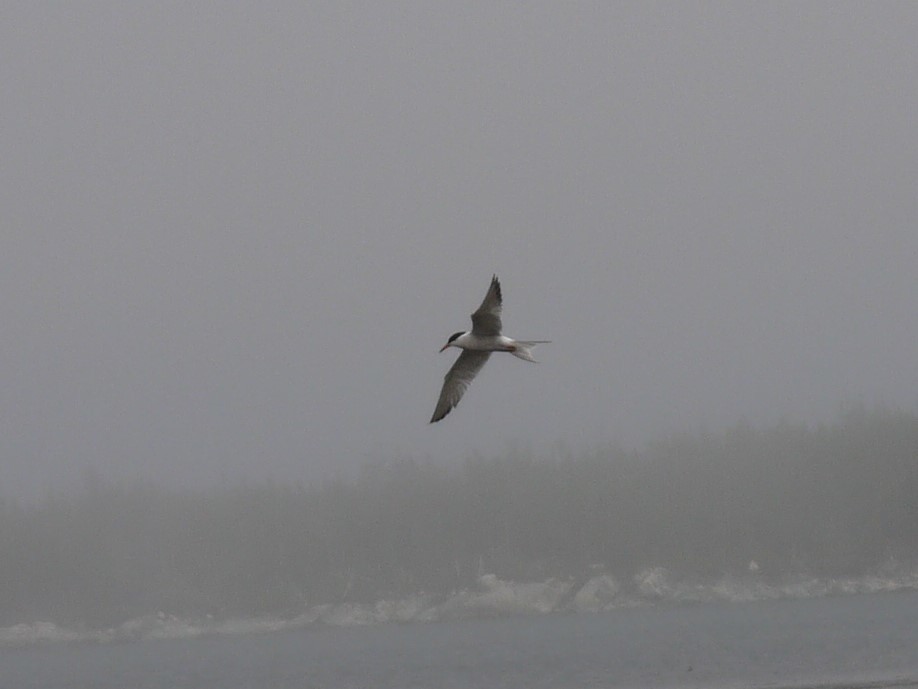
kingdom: Animalia
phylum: Chordata
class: Aves
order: Charadriiformes
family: Laridae
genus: Sterna
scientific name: Sterna hirundo
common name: Common tern
